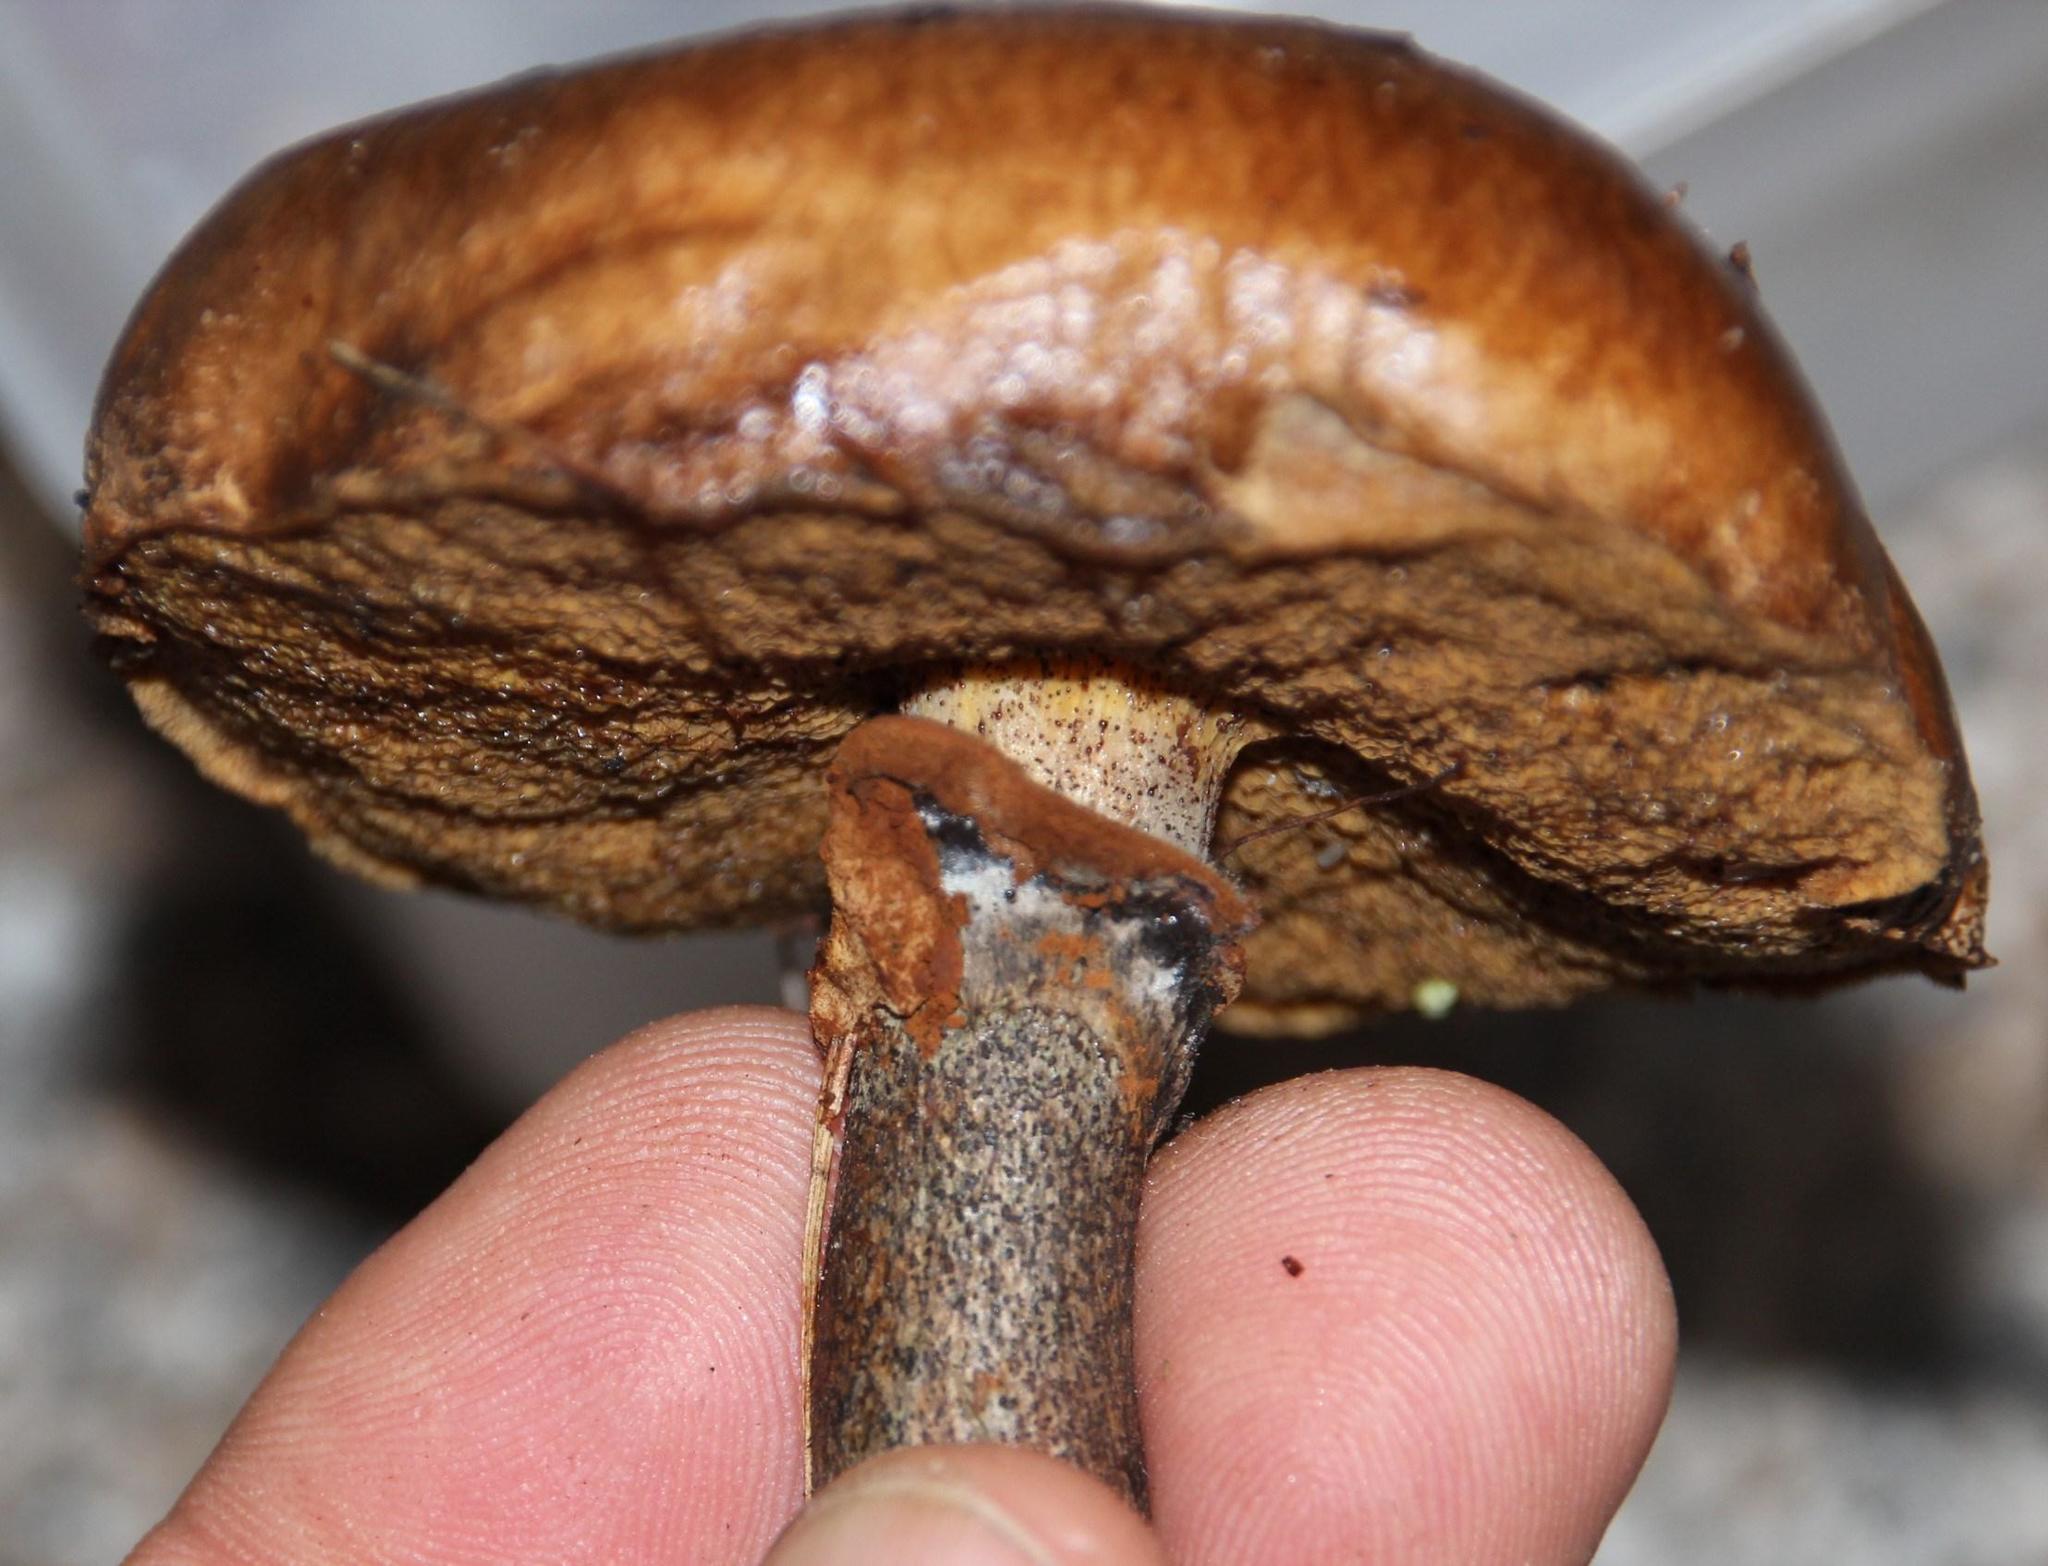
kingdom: Fungi
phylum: Basidiomycota
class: Agaricomycetes
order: Boletales
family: Suillaceae
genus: Suillus
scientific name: Suillus luteus
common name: Slippery jack
